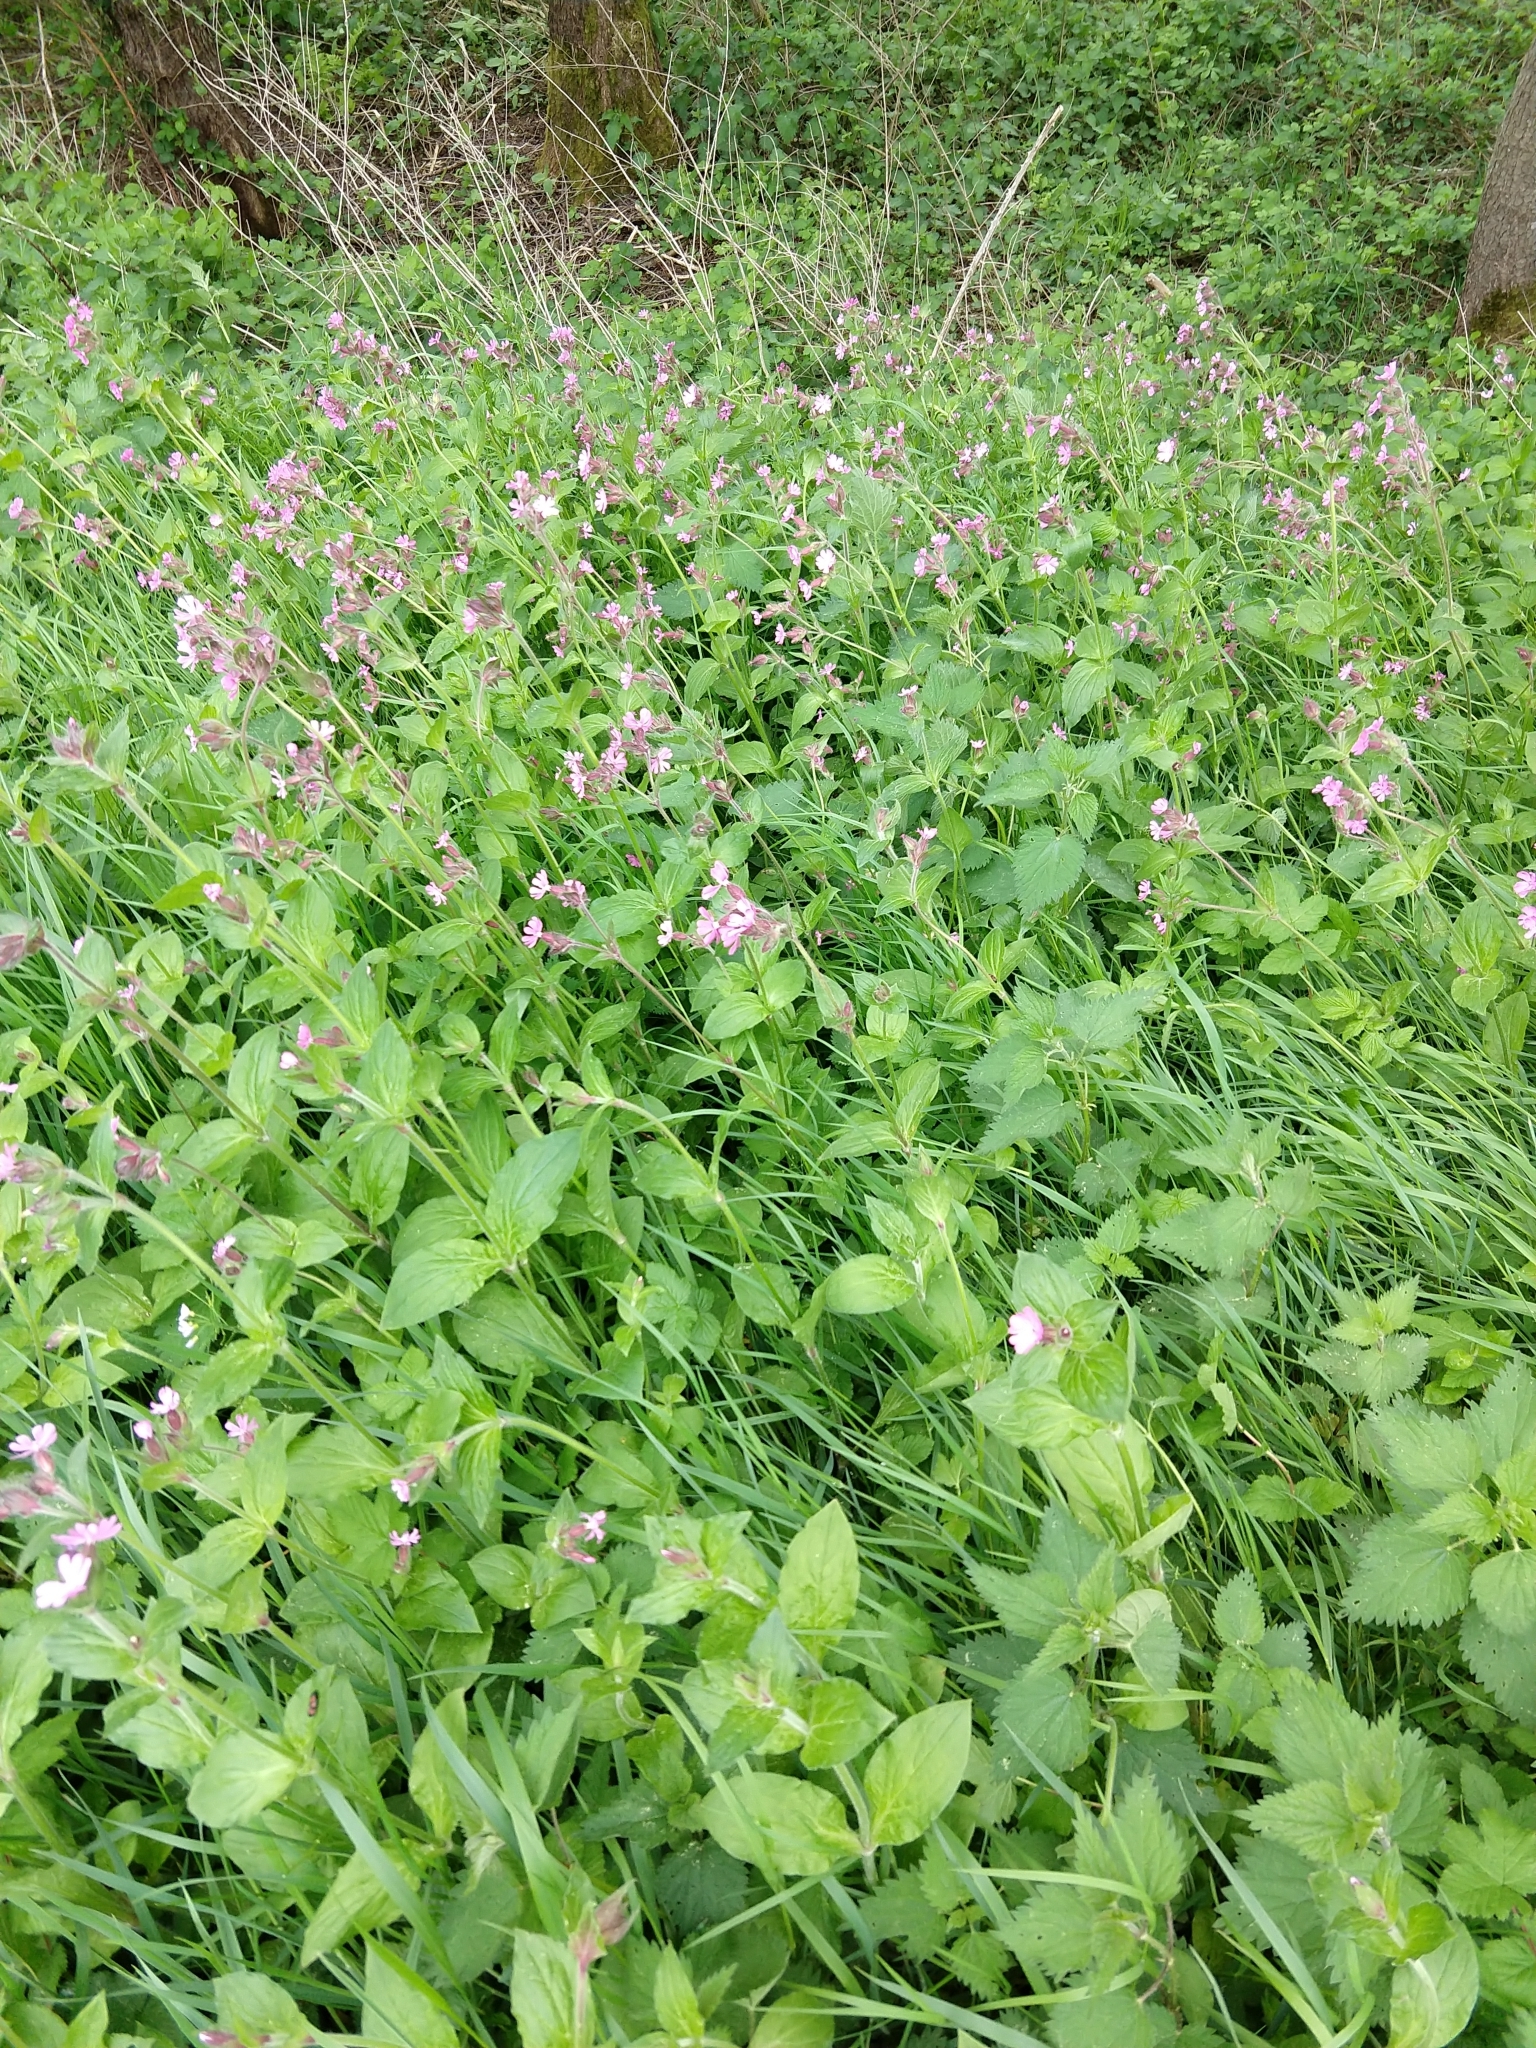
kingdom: Plantae
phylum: Tracheophyta
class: Magnoliopsida
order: Caryophyllales
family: Caryophyllaceae
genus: Silene
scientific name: Silene dioica
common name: Red campion
